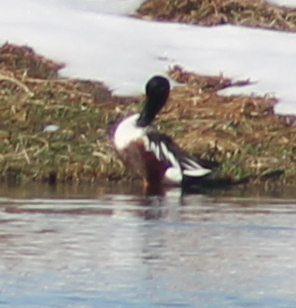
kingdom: Animalia
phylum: Chordata
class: Aves
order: Anseriformes
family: Anatidae
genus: Spatula
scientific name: Spatula clypeata
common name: Northern shoveler
